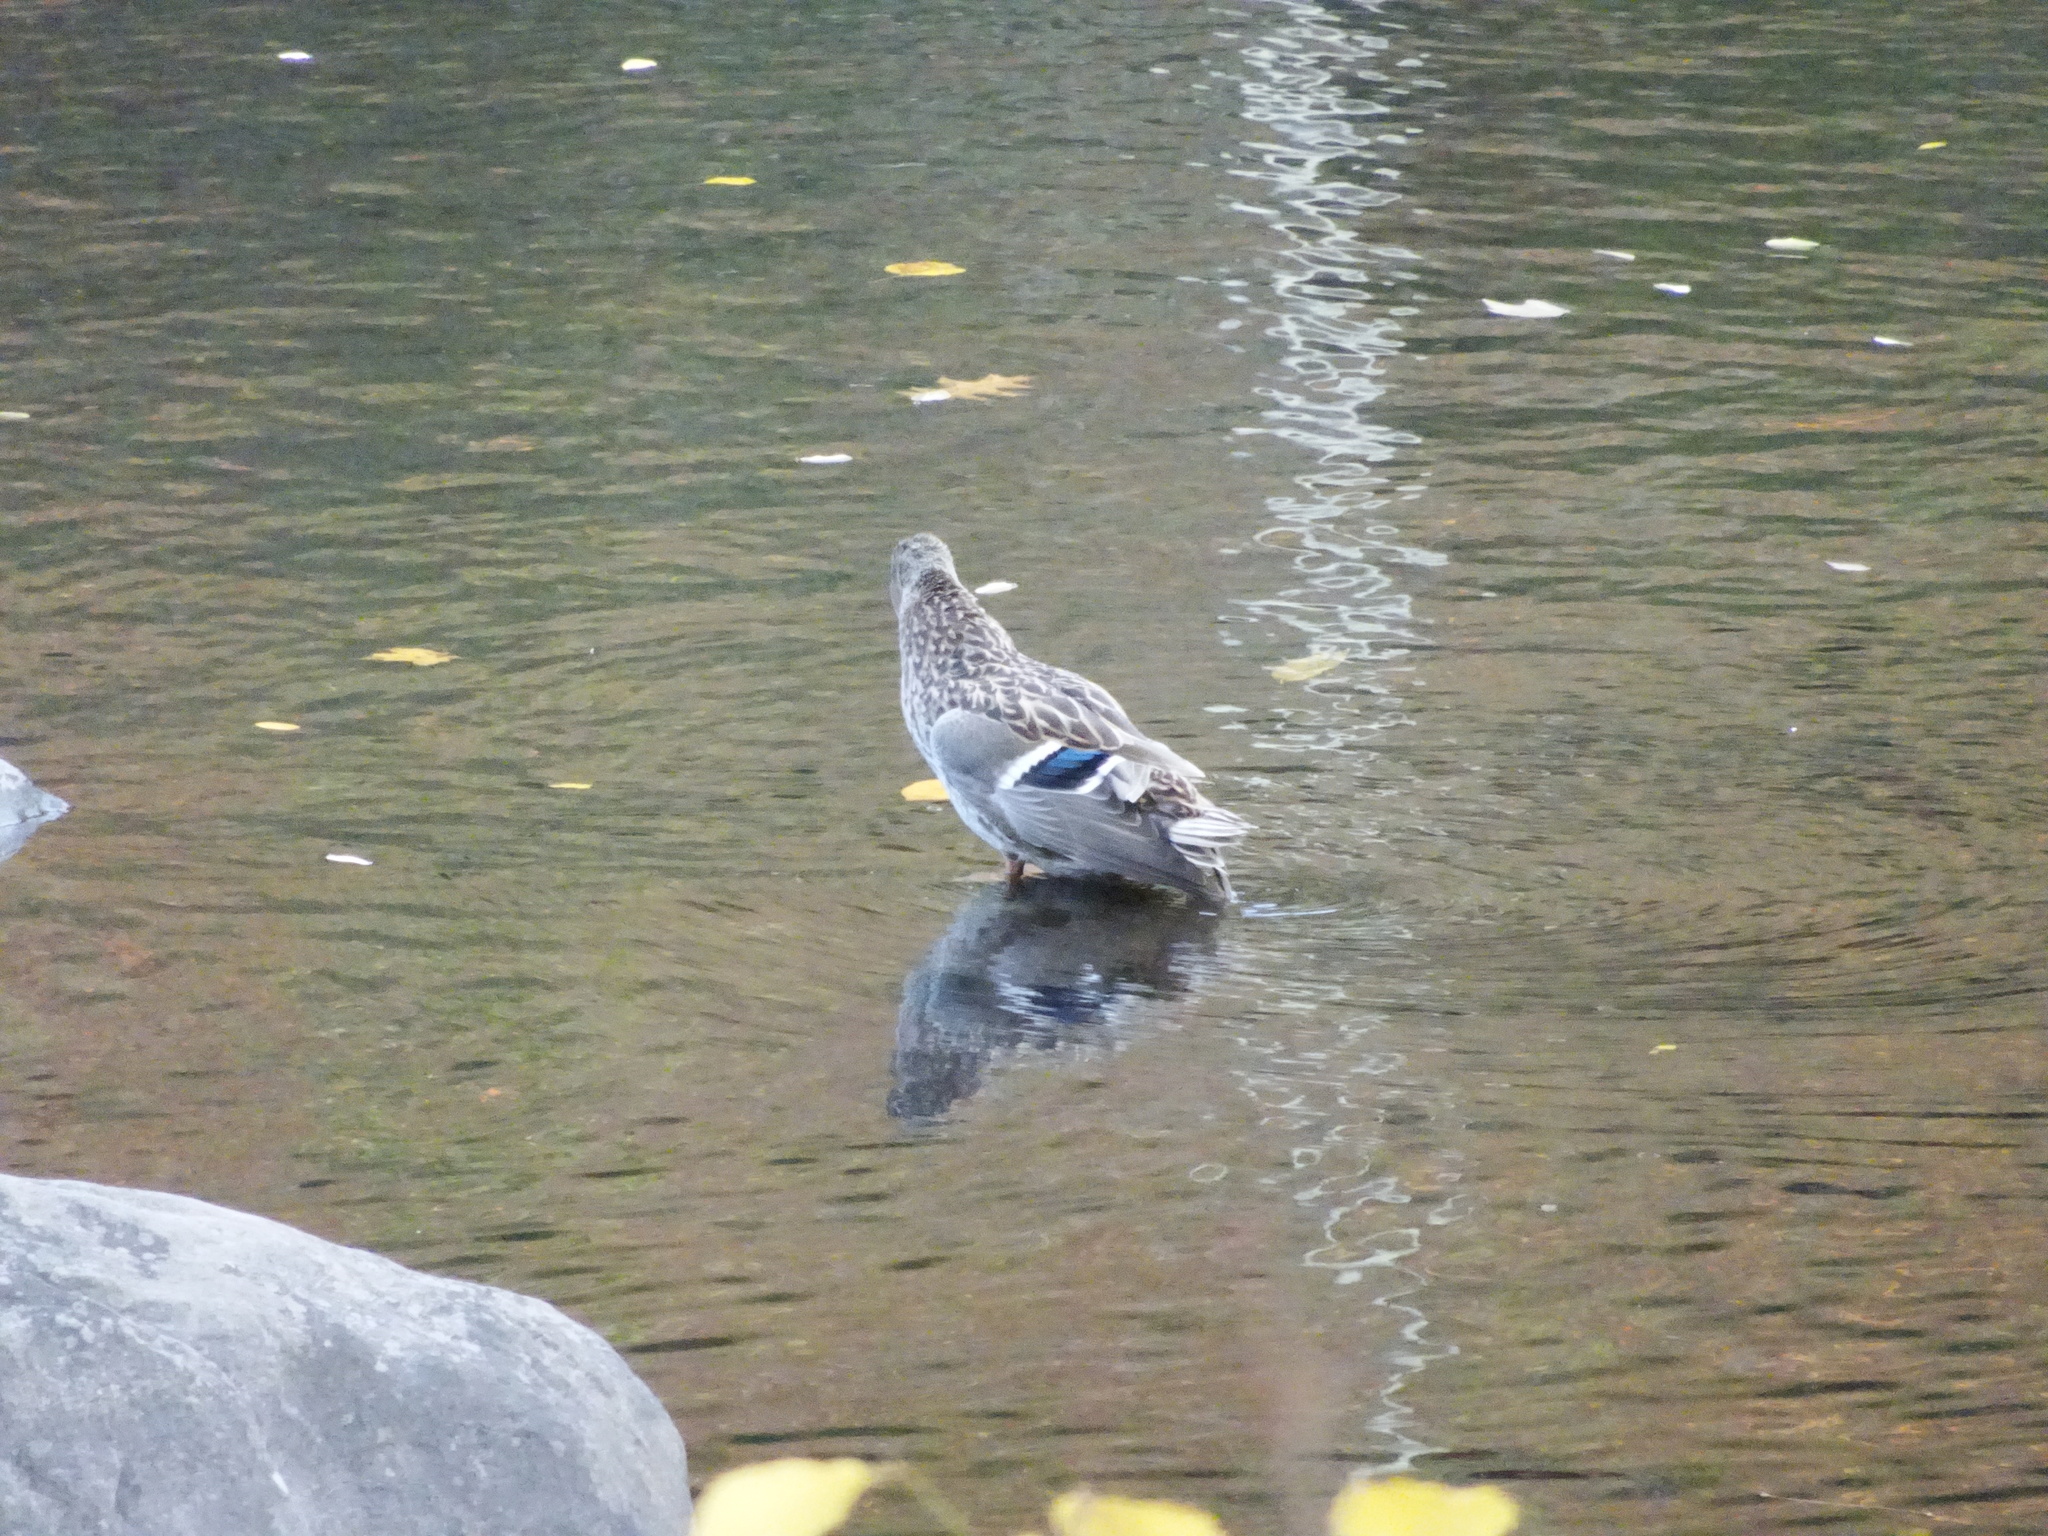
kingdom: Animalia
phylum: Chordata
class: Aves
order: Anseriformes
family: Anatidae
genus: Anas
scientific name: Anas platyrhynchos
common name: Mallard
